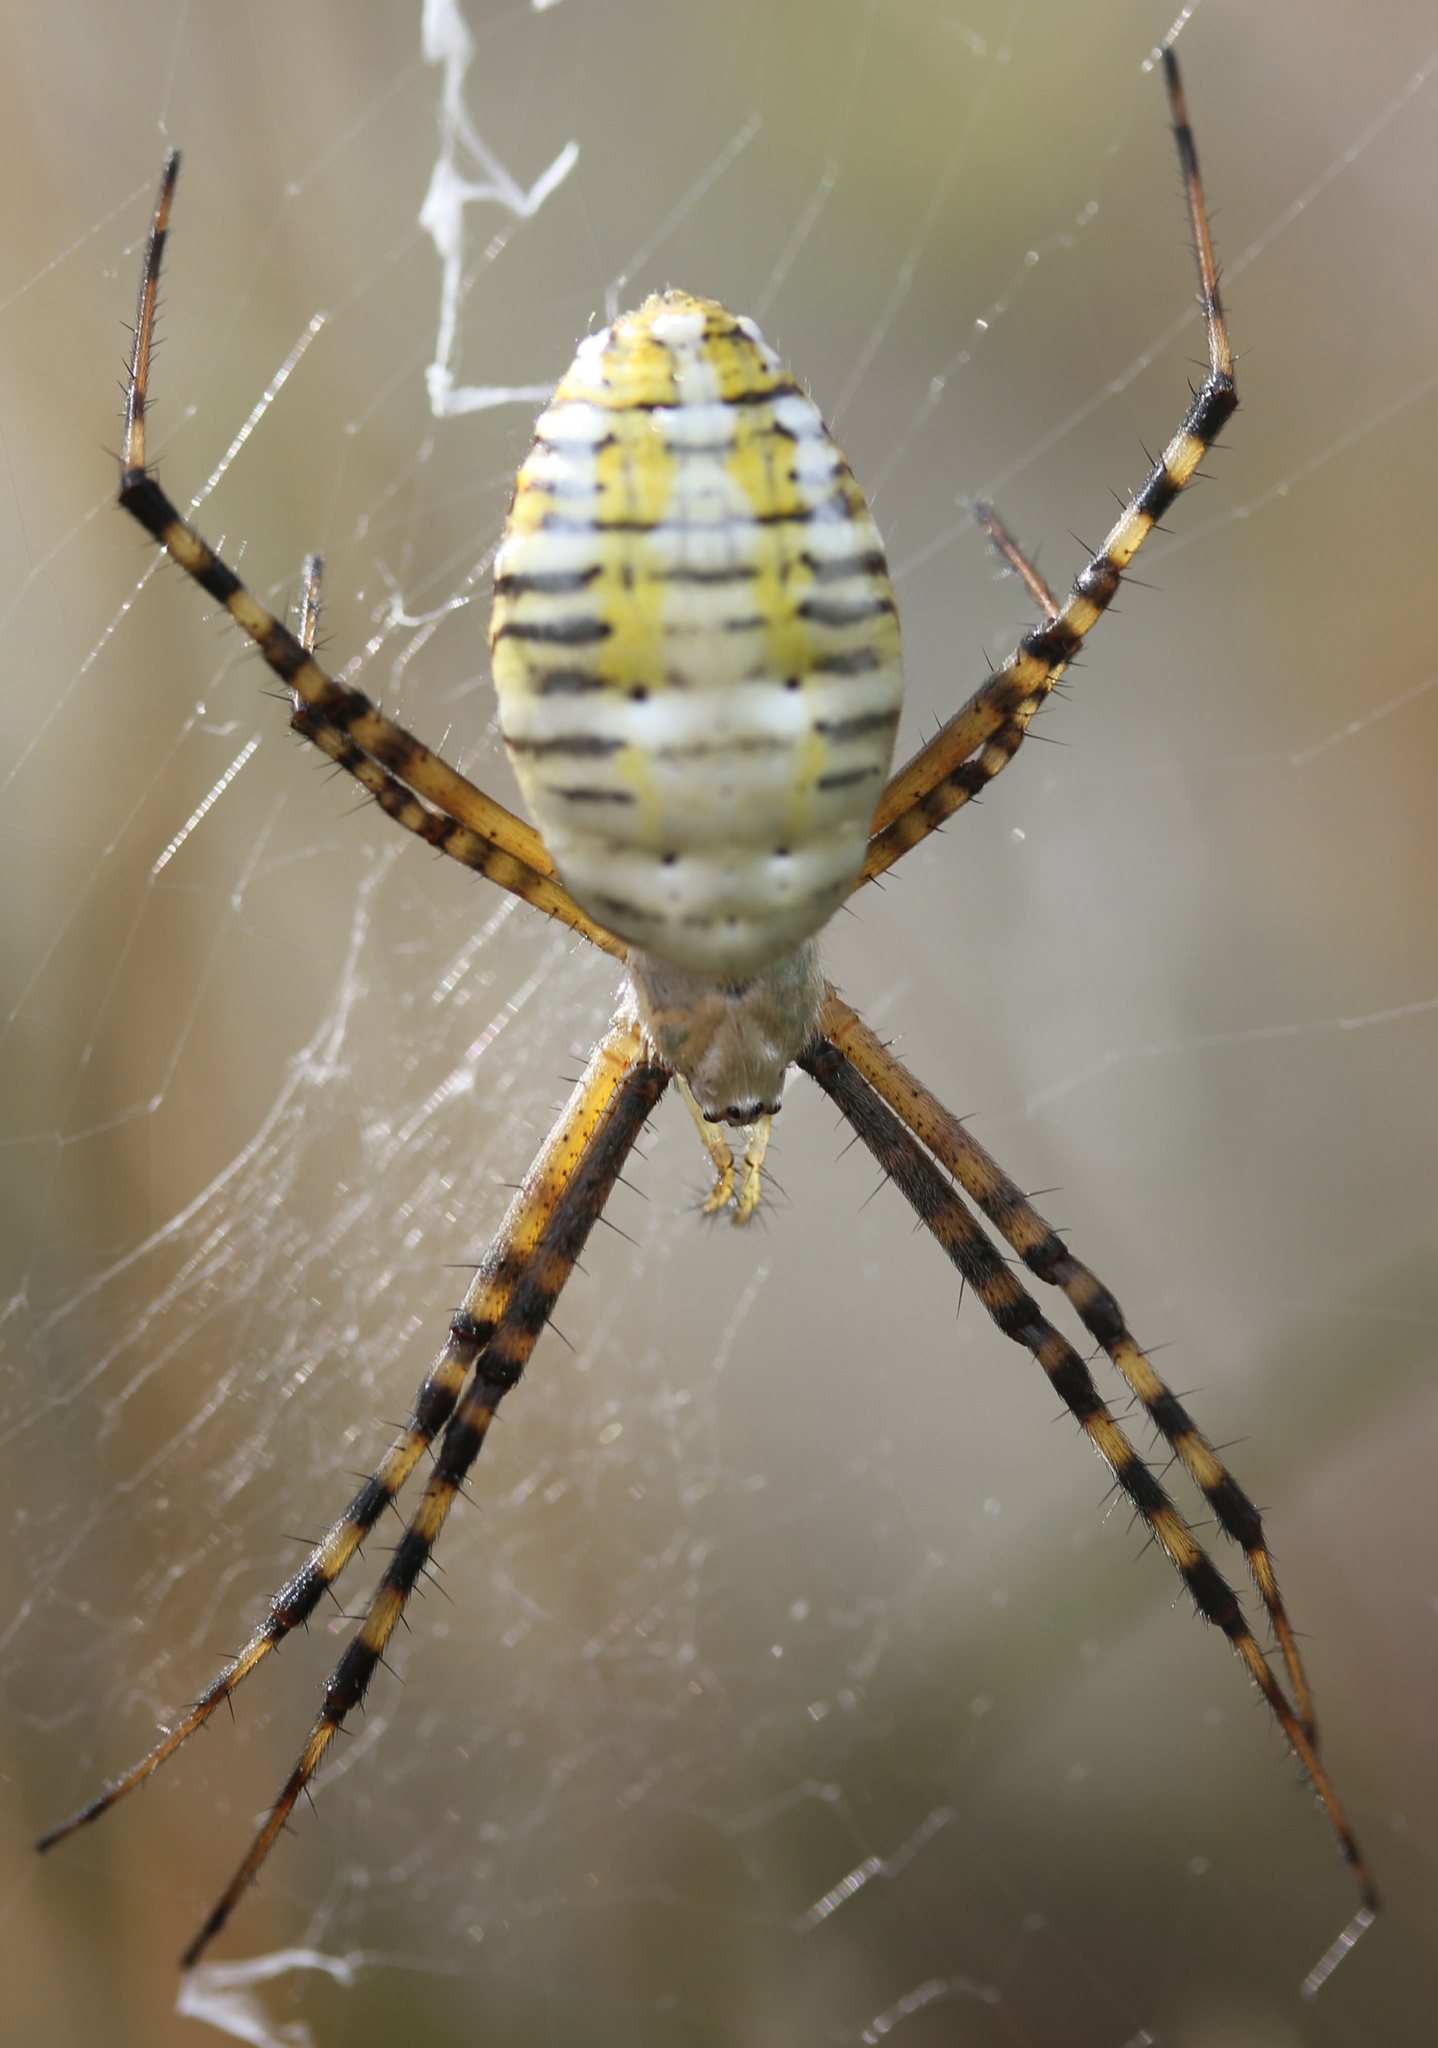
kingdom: Animalia
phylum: Arthropoda
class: Arachnida
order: Araneae
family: Araneidae
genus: Argiope
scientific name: Argiope trifasciata
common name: Banded garden spider
